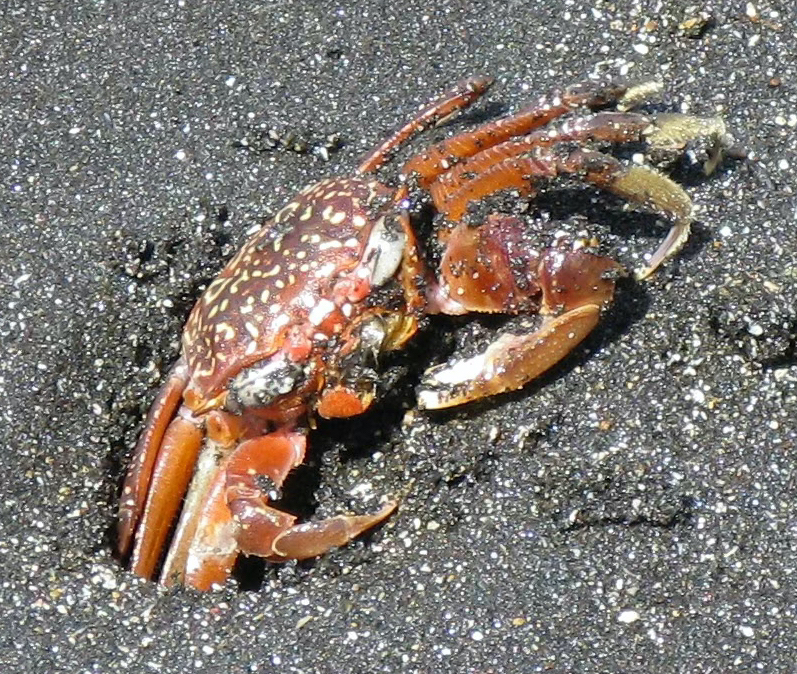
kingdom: Animalia
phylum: Arthropoda
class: Malacostraca
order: Decapoda
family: Ocypodidae
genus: Ocypode
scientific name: Ocypode gaudichaudii
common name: Pacific ghost crab
